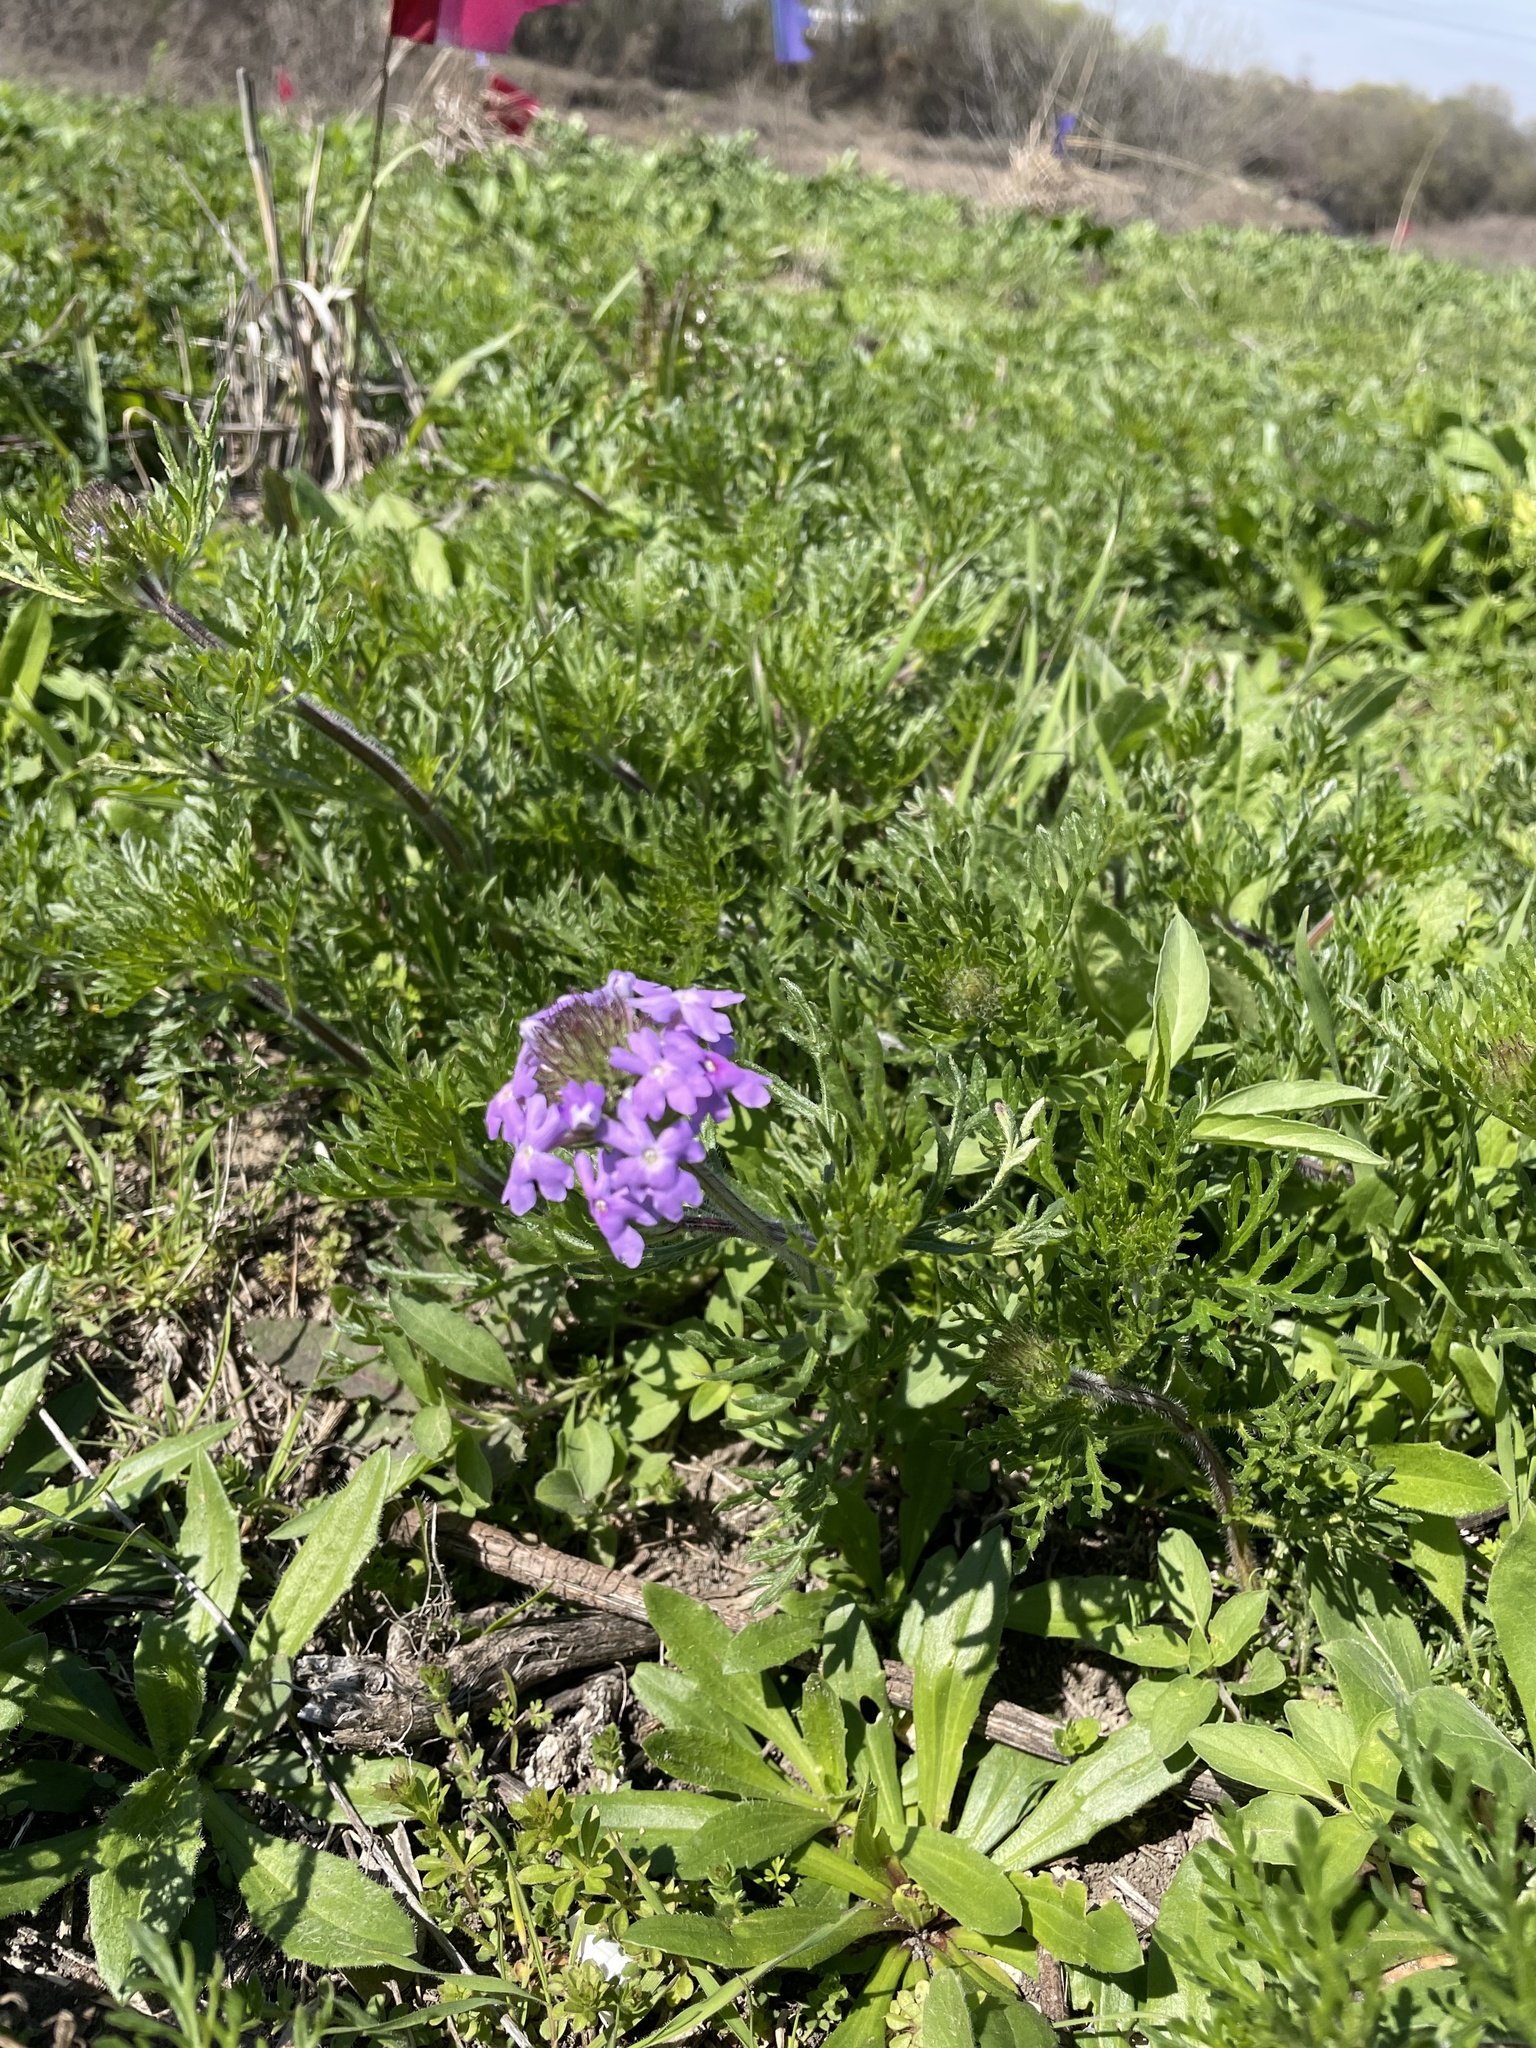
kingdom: Plantae
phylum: Tracheophyta
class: Magnoliopsida
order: Lamiales
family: Verbenaceae
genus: Verbena
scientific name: Verbena bipinnatifida
